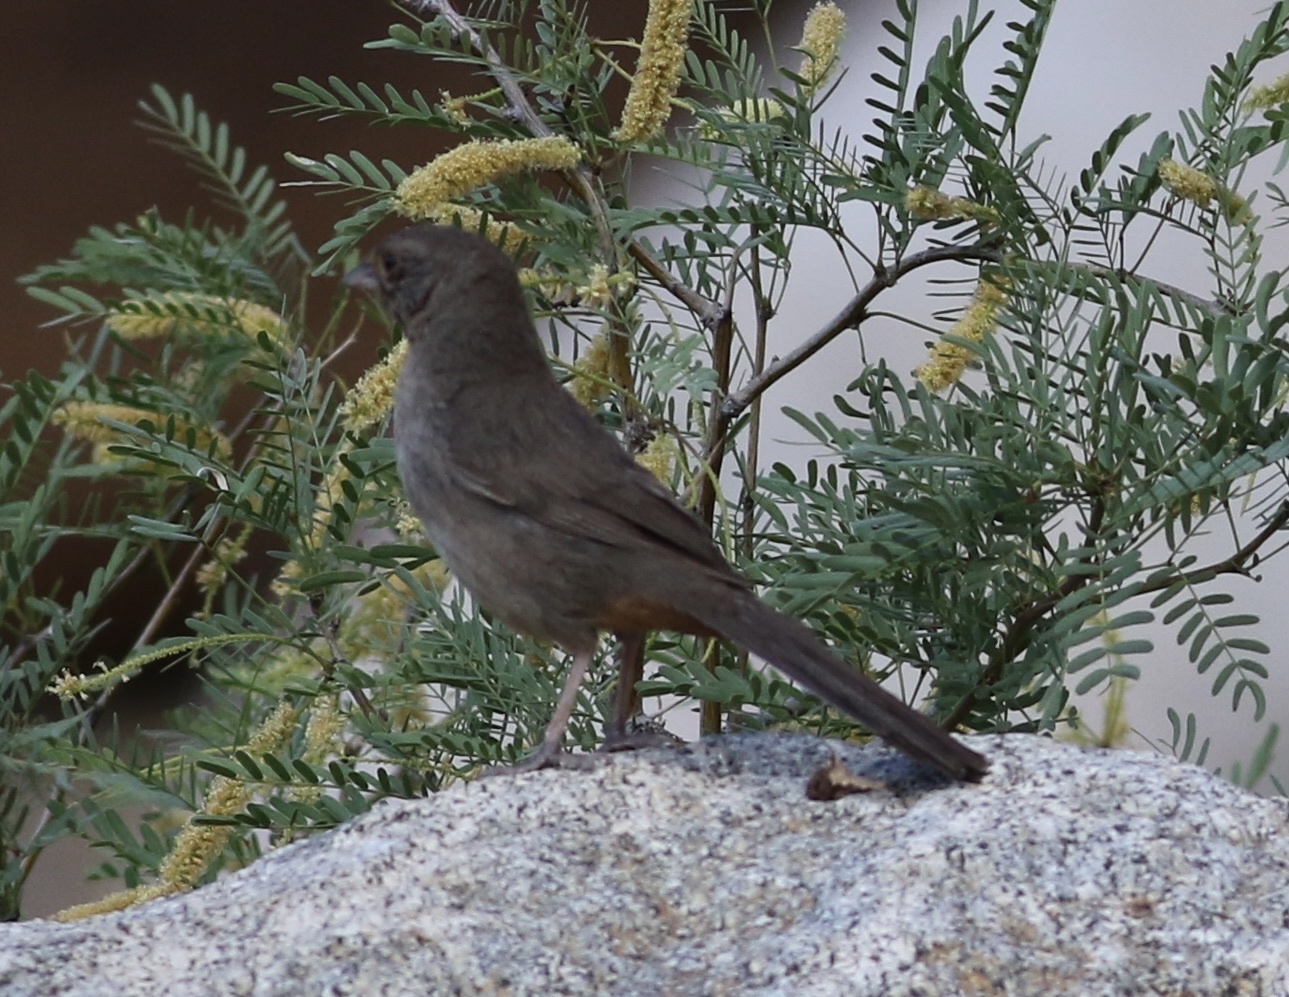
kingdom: Animalia
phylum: Chordata
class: Aves
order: Passeriformes
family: Passerellidae
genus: Melozone
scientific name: Melozone crissalis
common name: California towhee
